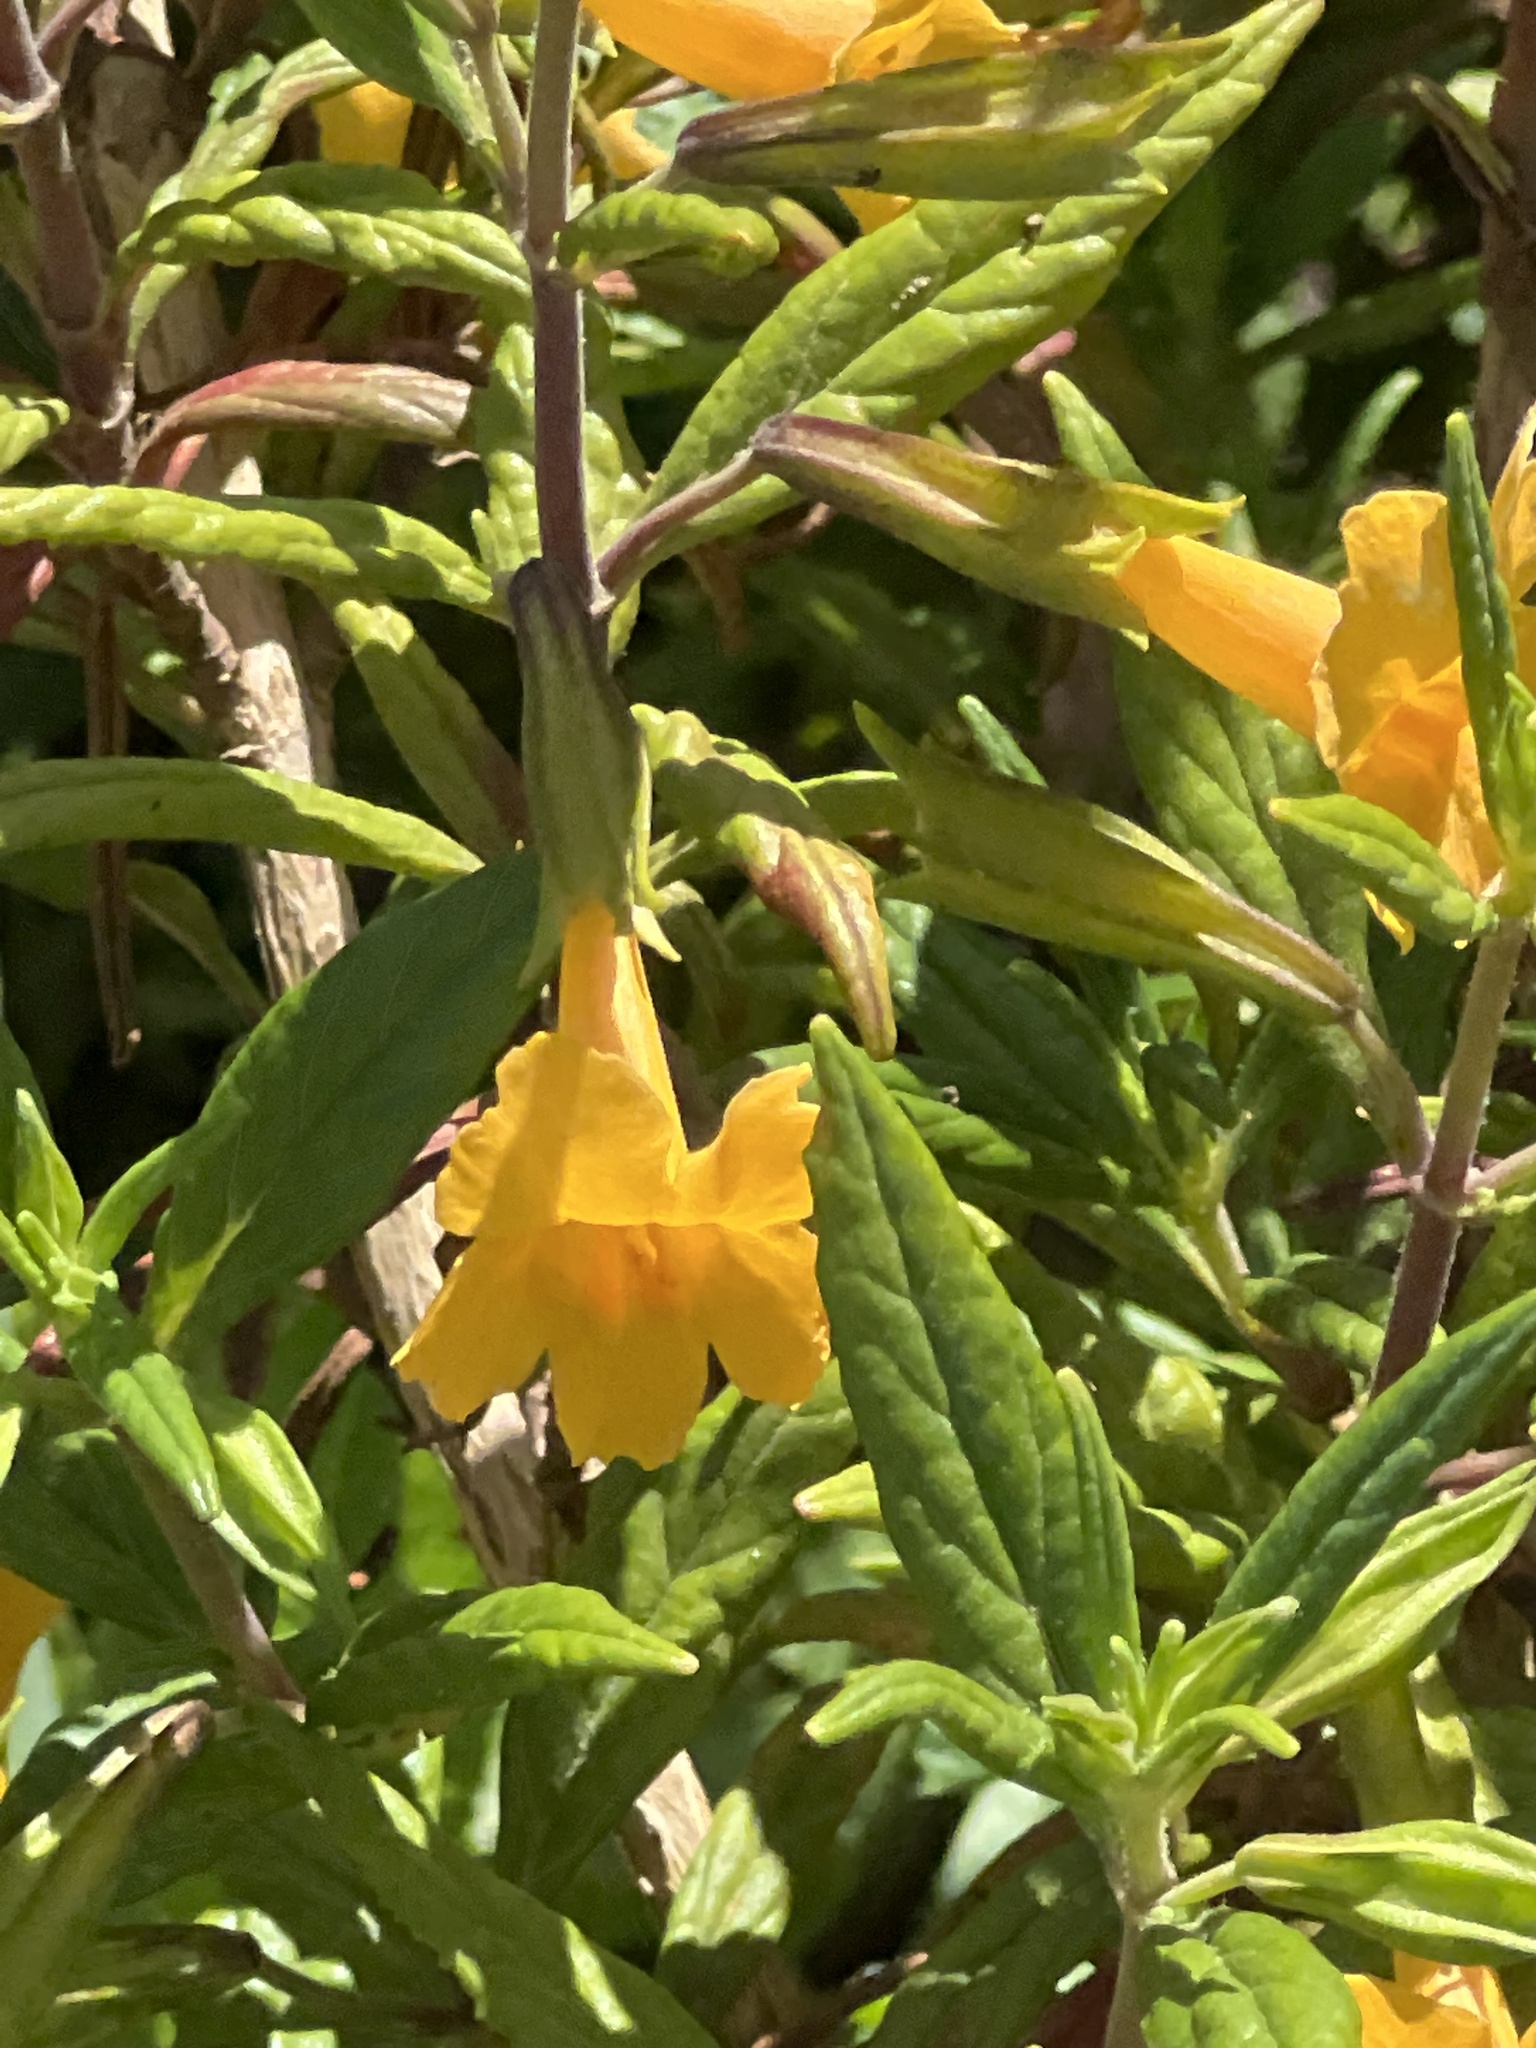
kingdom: Plantae
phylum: Tracheophyta
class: Magnoliopsida
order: Lamiales
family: Phrymaceae
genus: Diplacus
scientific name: Diplacus aurantiacus
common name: Bush monkey-flower
